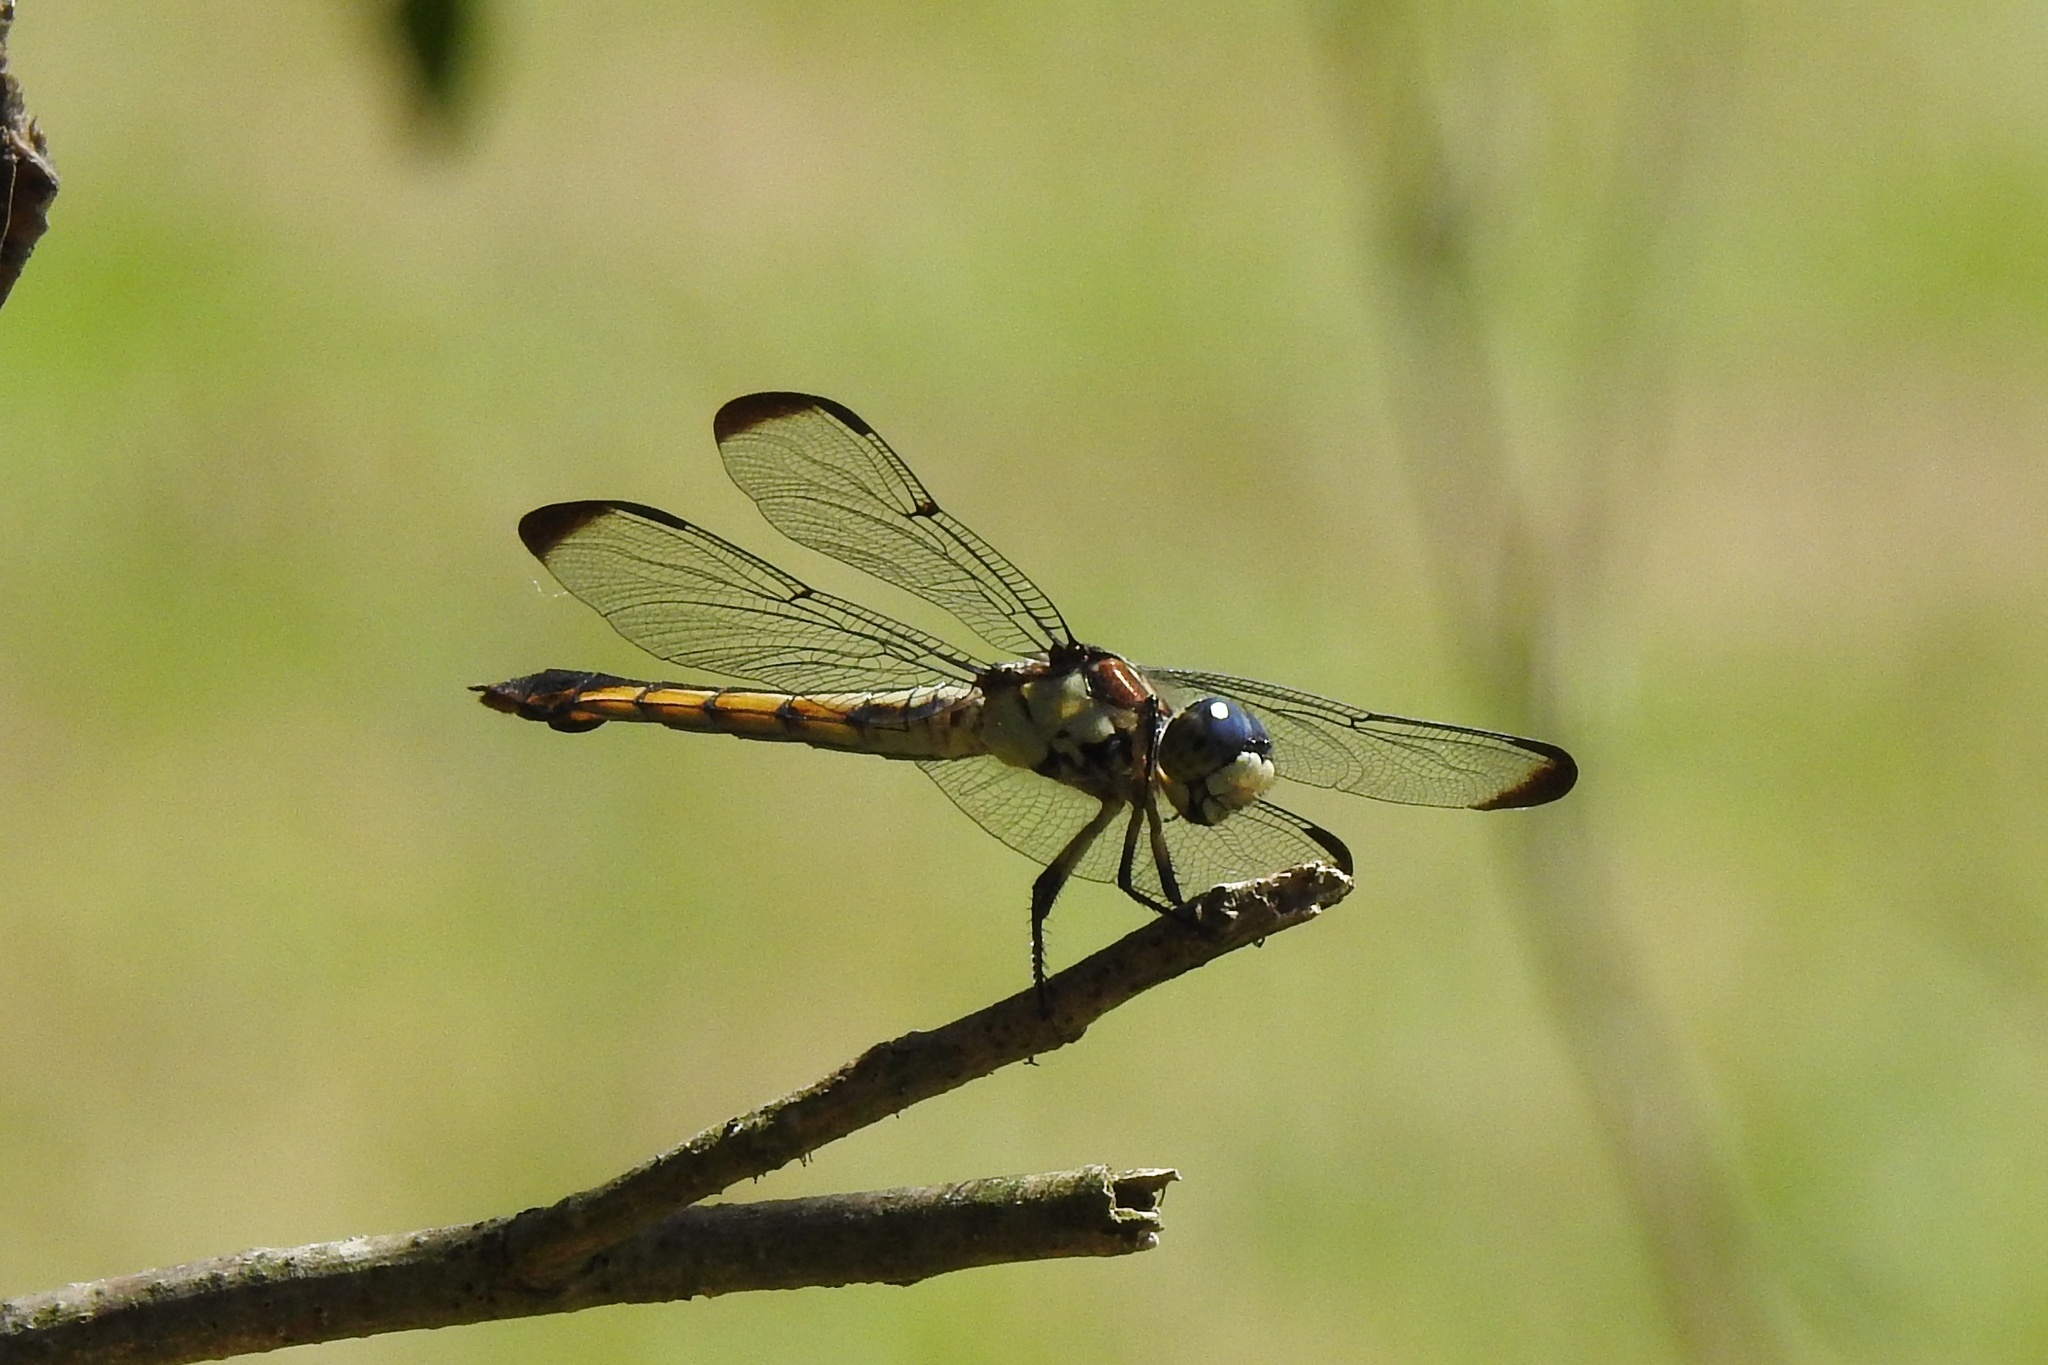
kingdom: Animalia
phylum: Arthropoda
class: Insecta
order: Odonata
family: Libellulidae
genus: Libellula
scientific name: Libellula vibrans
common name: Great blue skimmer
